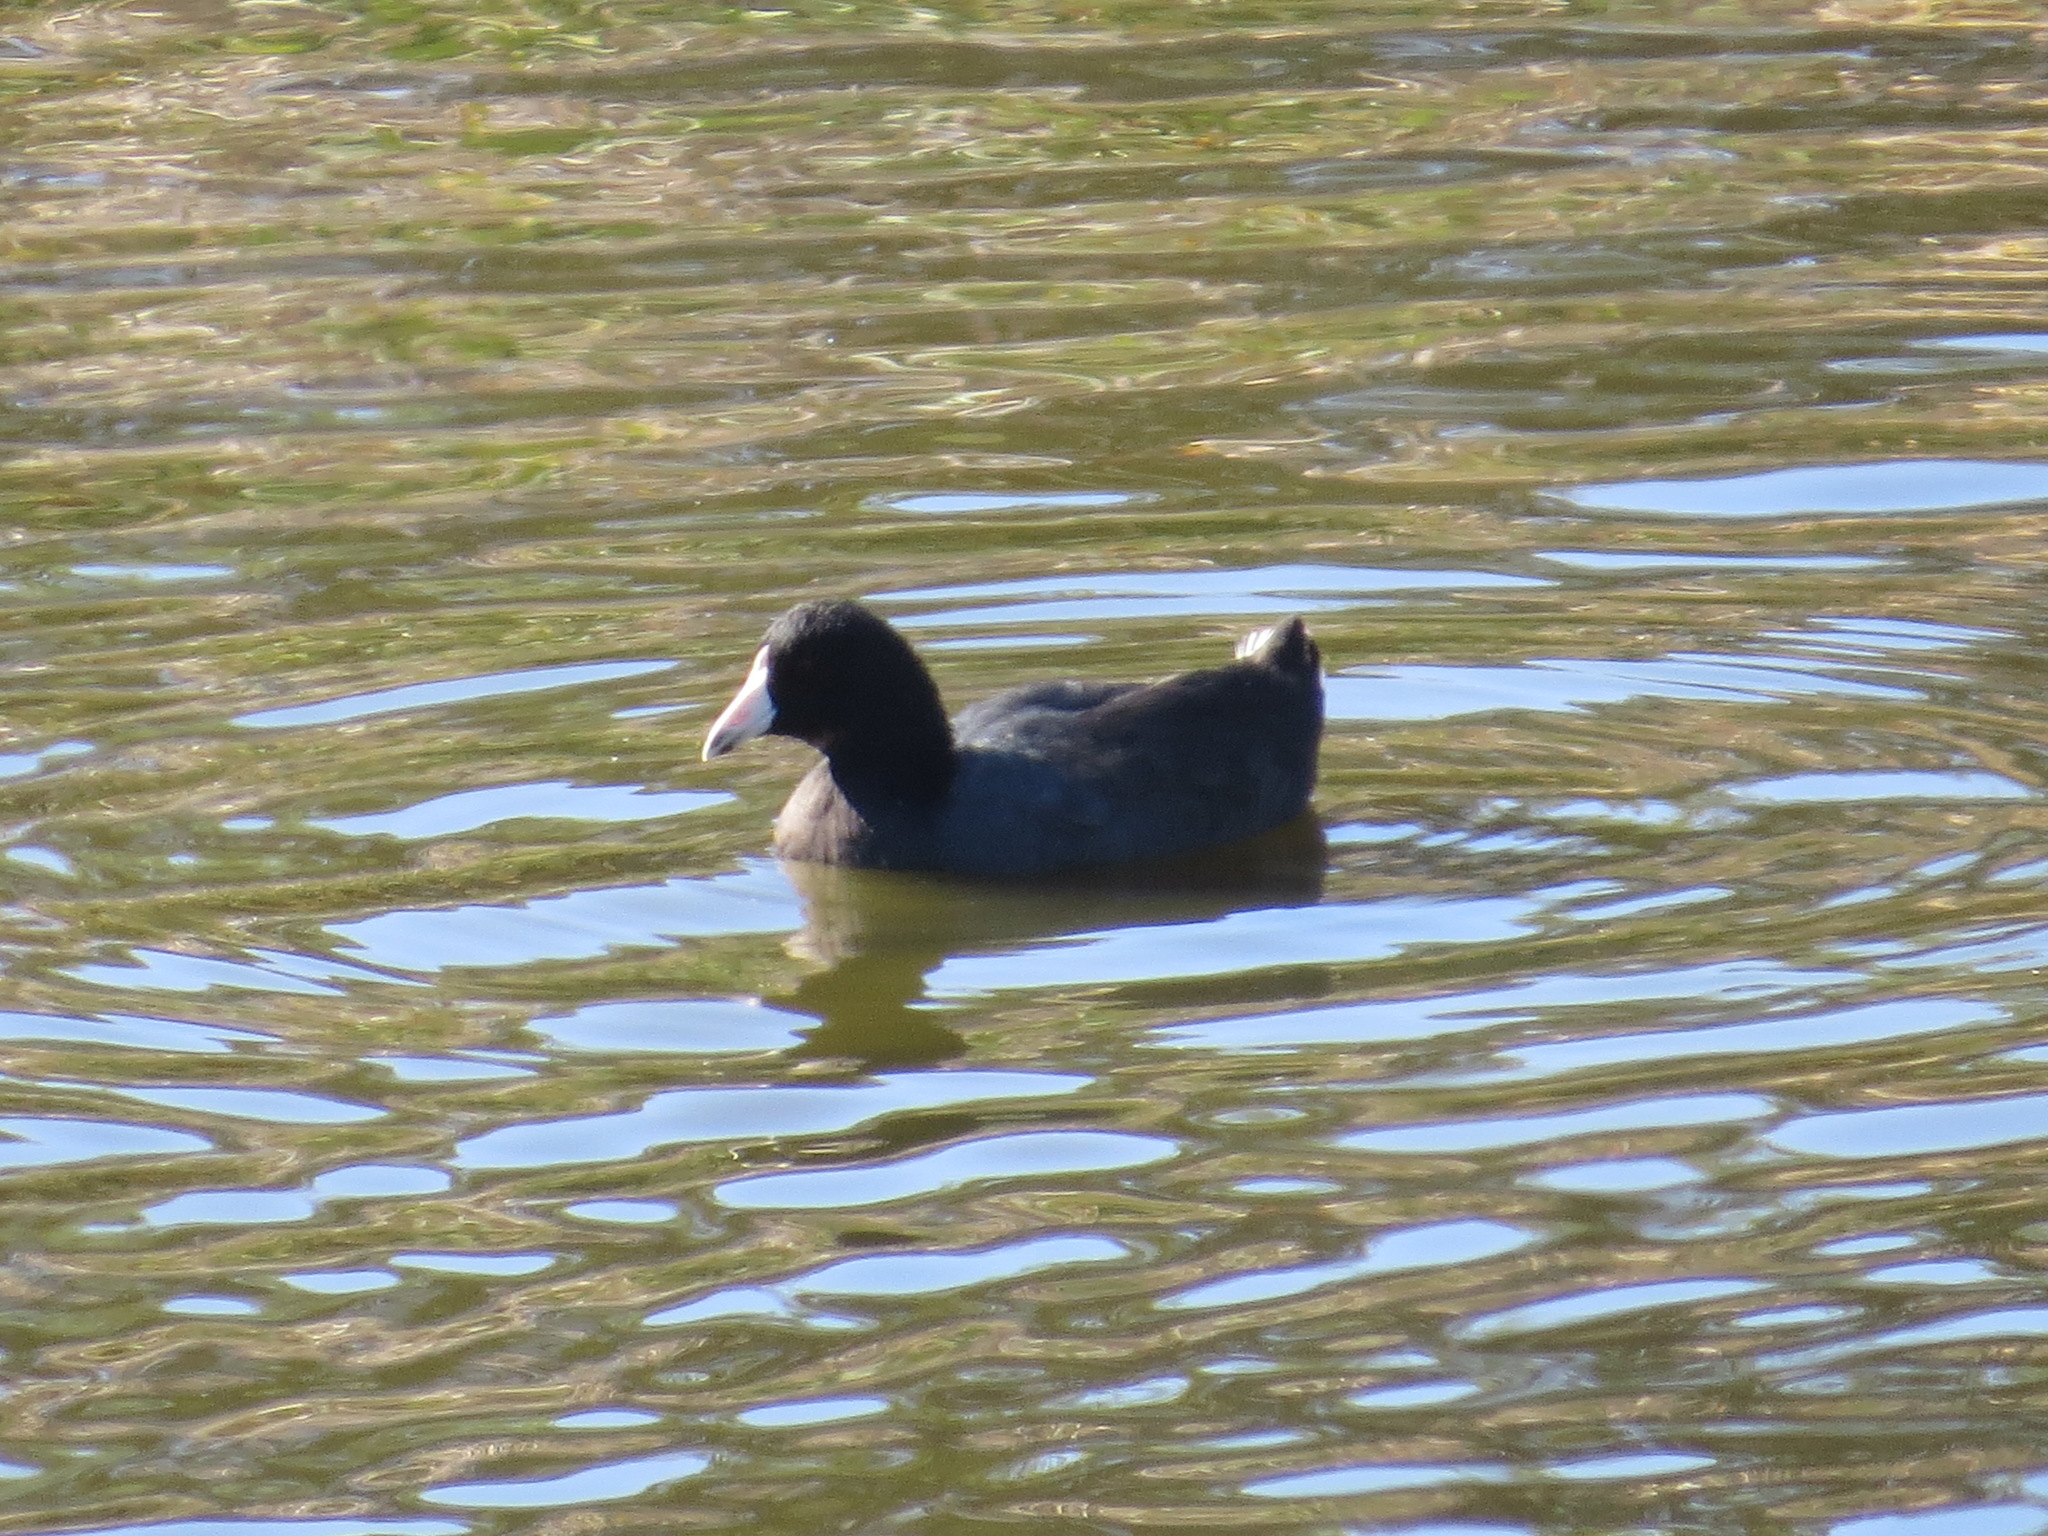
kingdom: Animalia
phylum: Chordata
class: Aves
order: Gruiformes
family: Rallidae
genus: Fulica
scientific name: Fulica americana
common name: American coot
